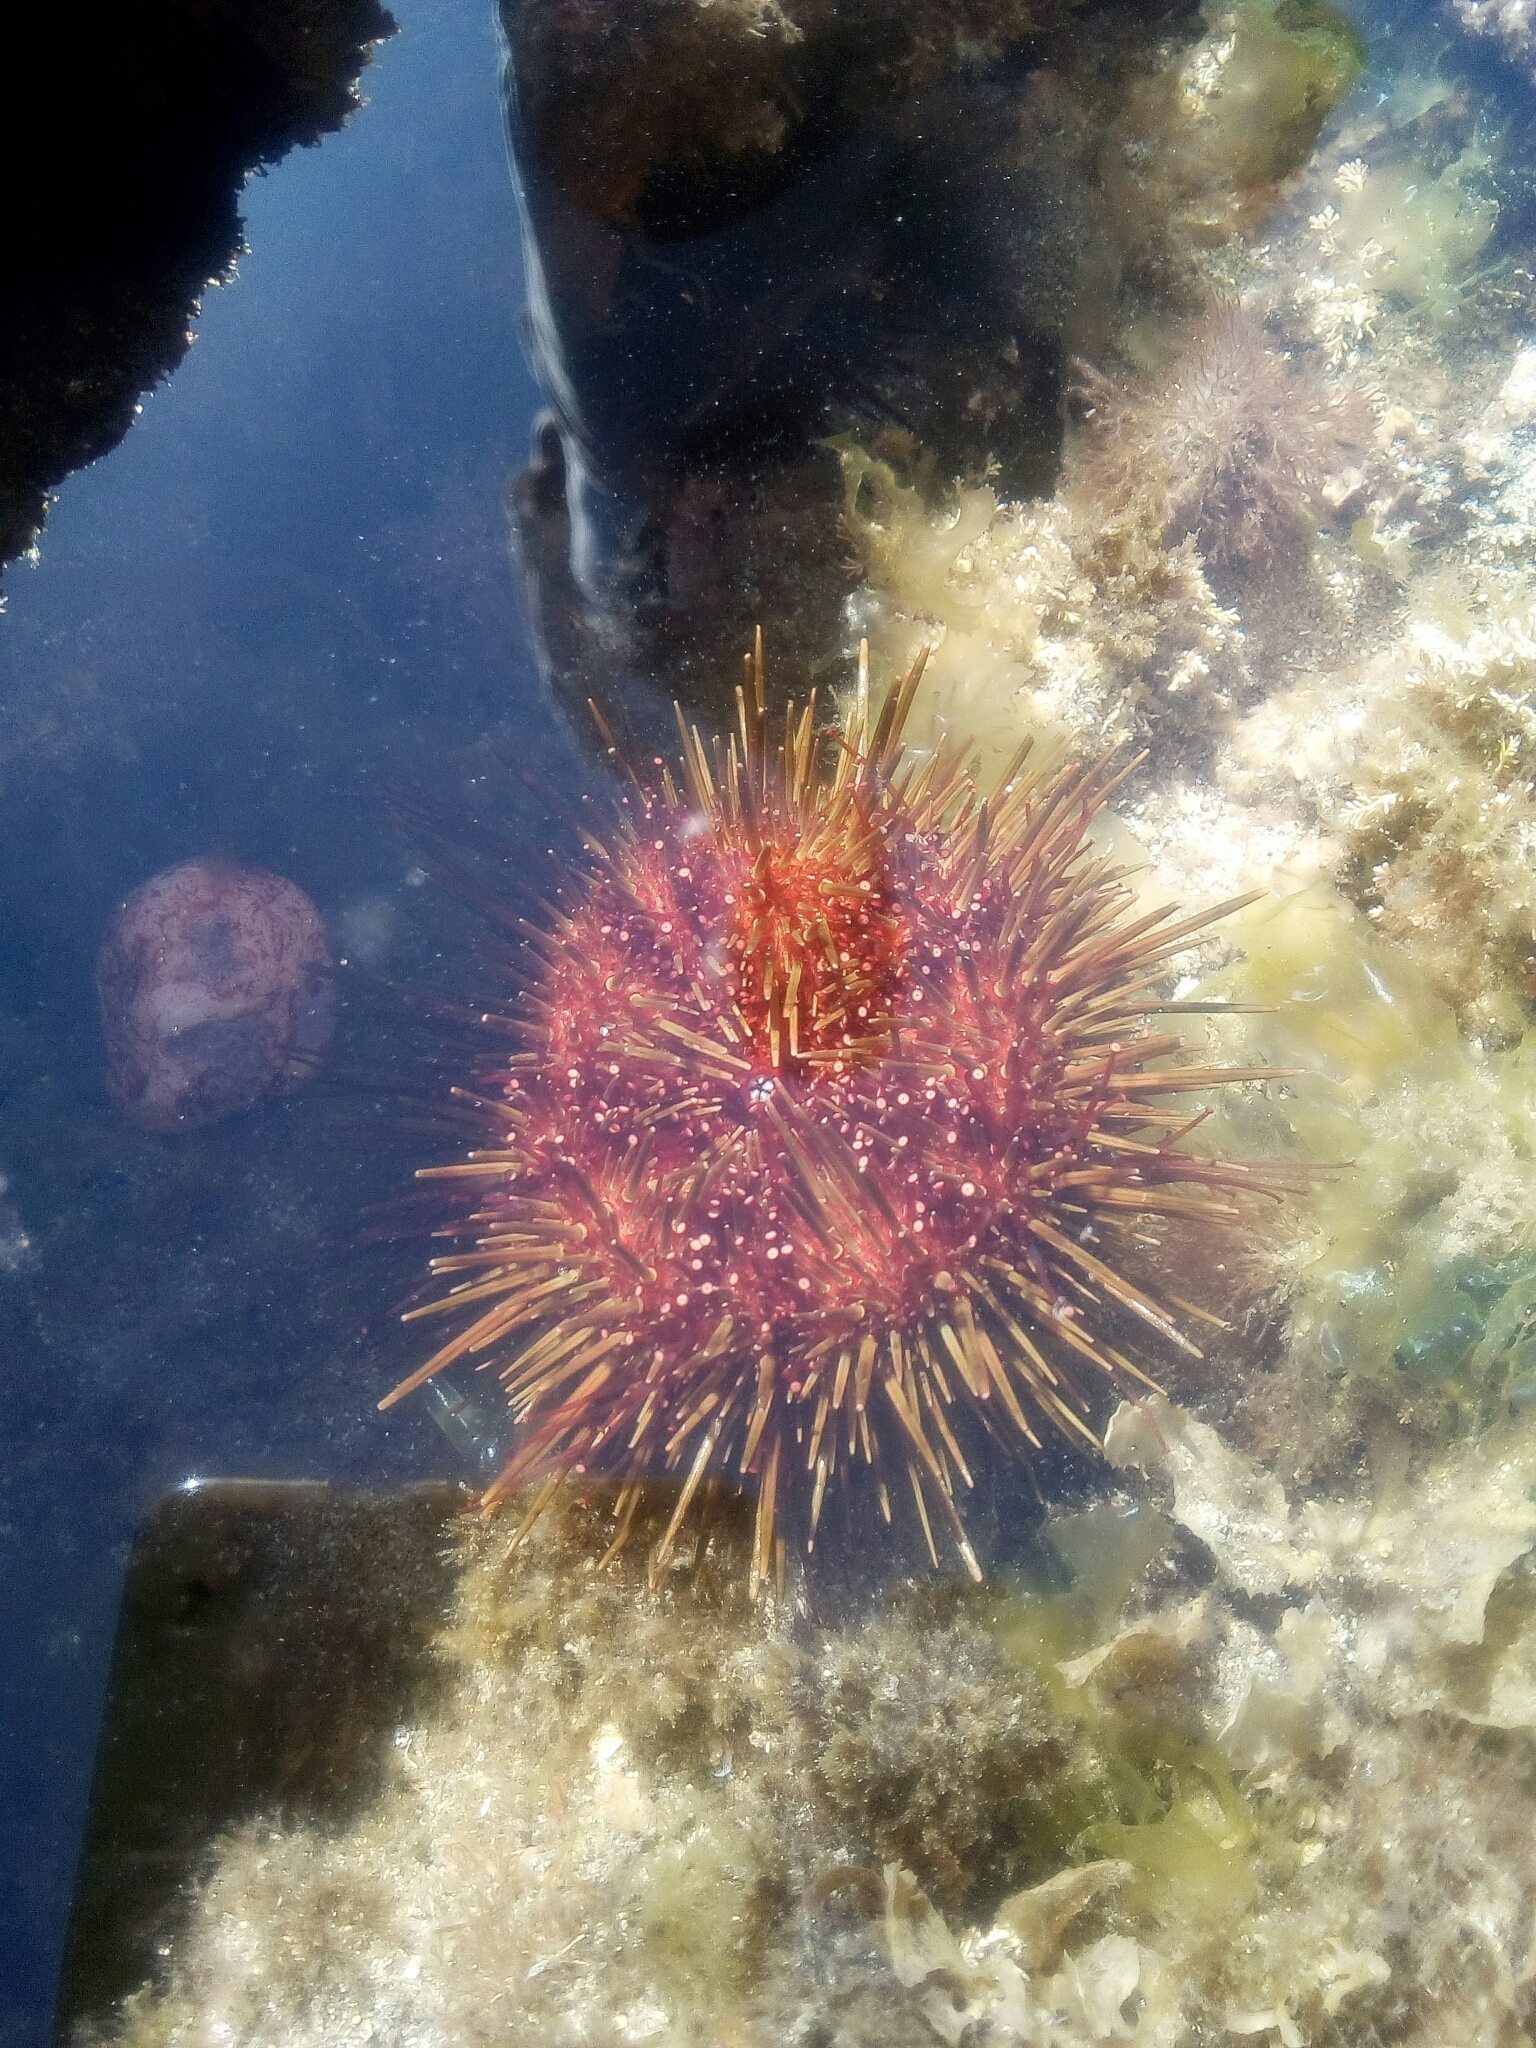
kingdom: Animalia
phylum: Echinodermata
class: Echinoidea
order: Camarodonta
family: Parechinidae
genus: Paracentrotus
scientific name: Paracentrotus lividus
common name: Purple sea urchin
